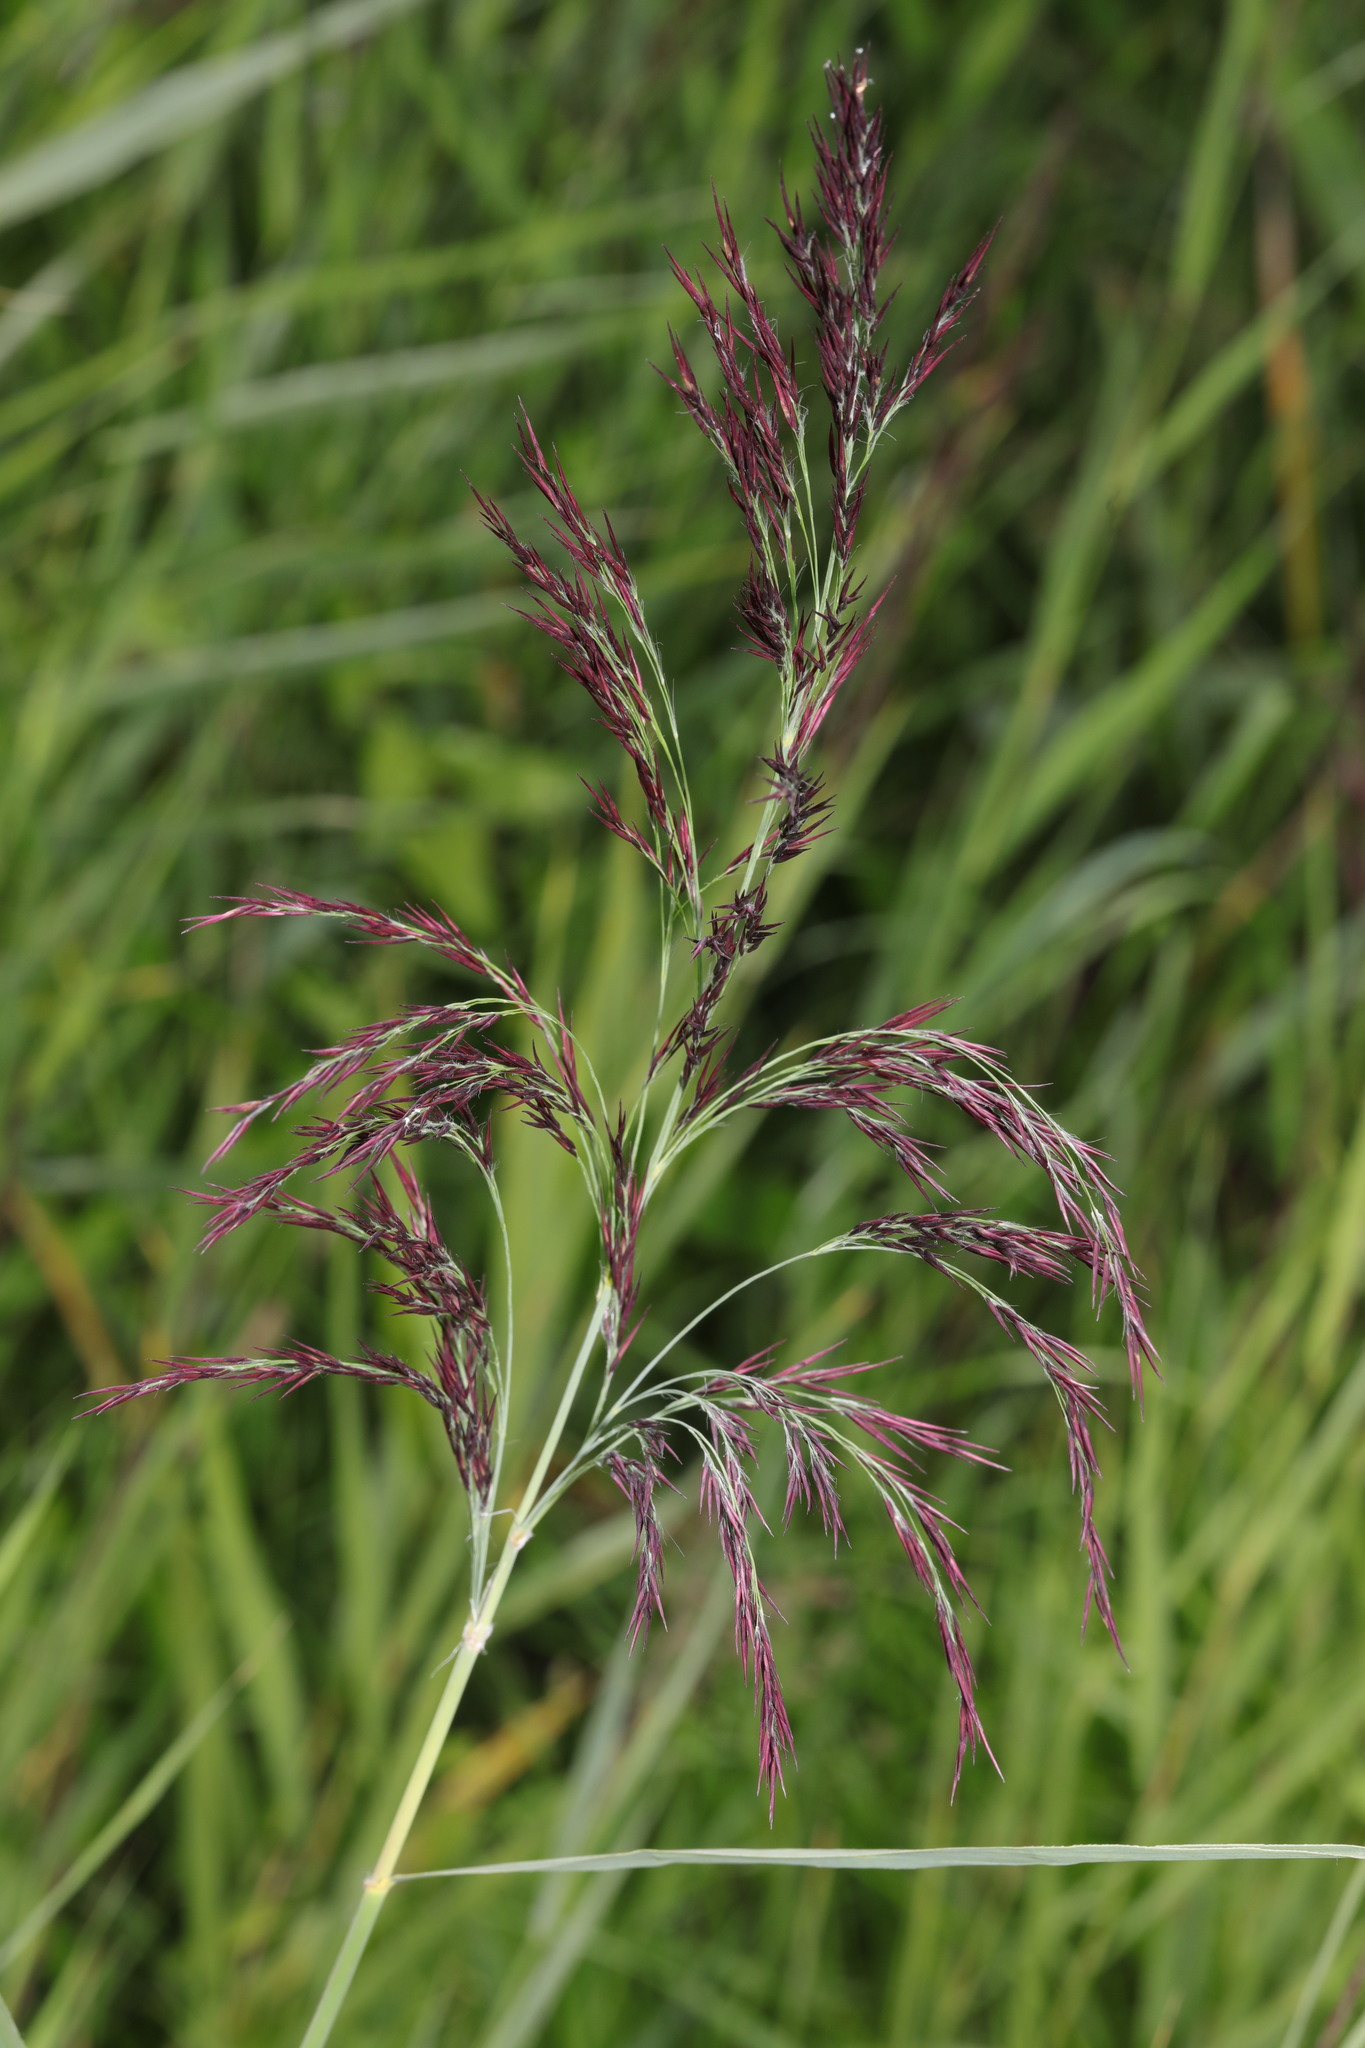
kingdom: Plantae
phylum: Tracheophyta
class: Liliopsida
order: Poales
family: Poaceae
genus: Phragmites
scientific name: Phragmites australis
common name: Common reed
